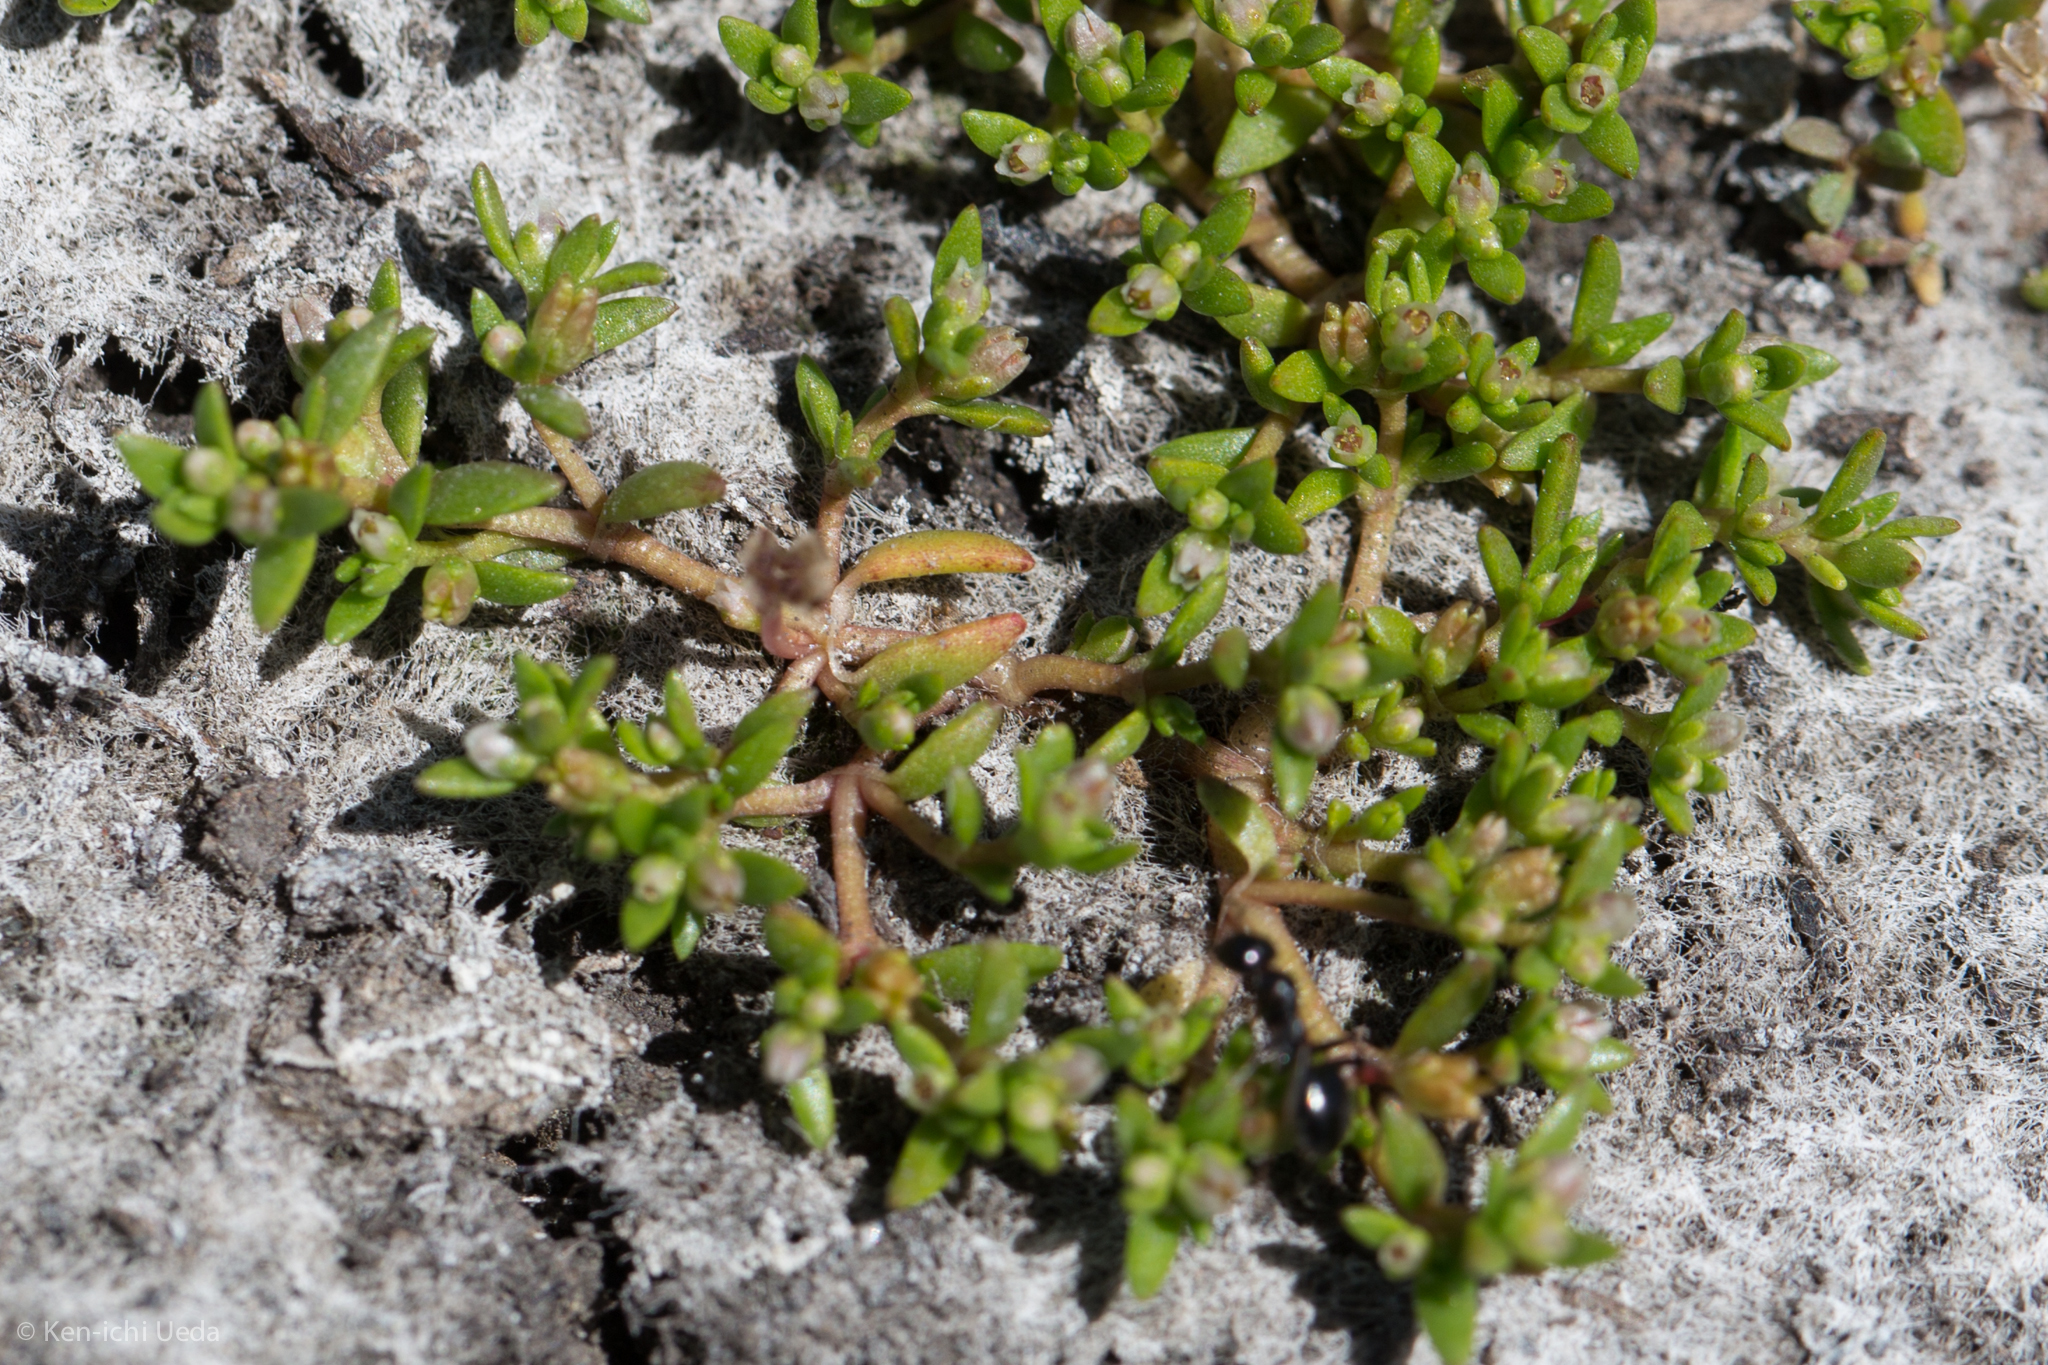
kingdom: Plantae
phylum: Tracheophyta
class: Magnoliopsida
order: Saxifragales
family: Crassulaceae
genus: Crassula
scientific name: Crassula aquatica
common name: Pigmyweed
